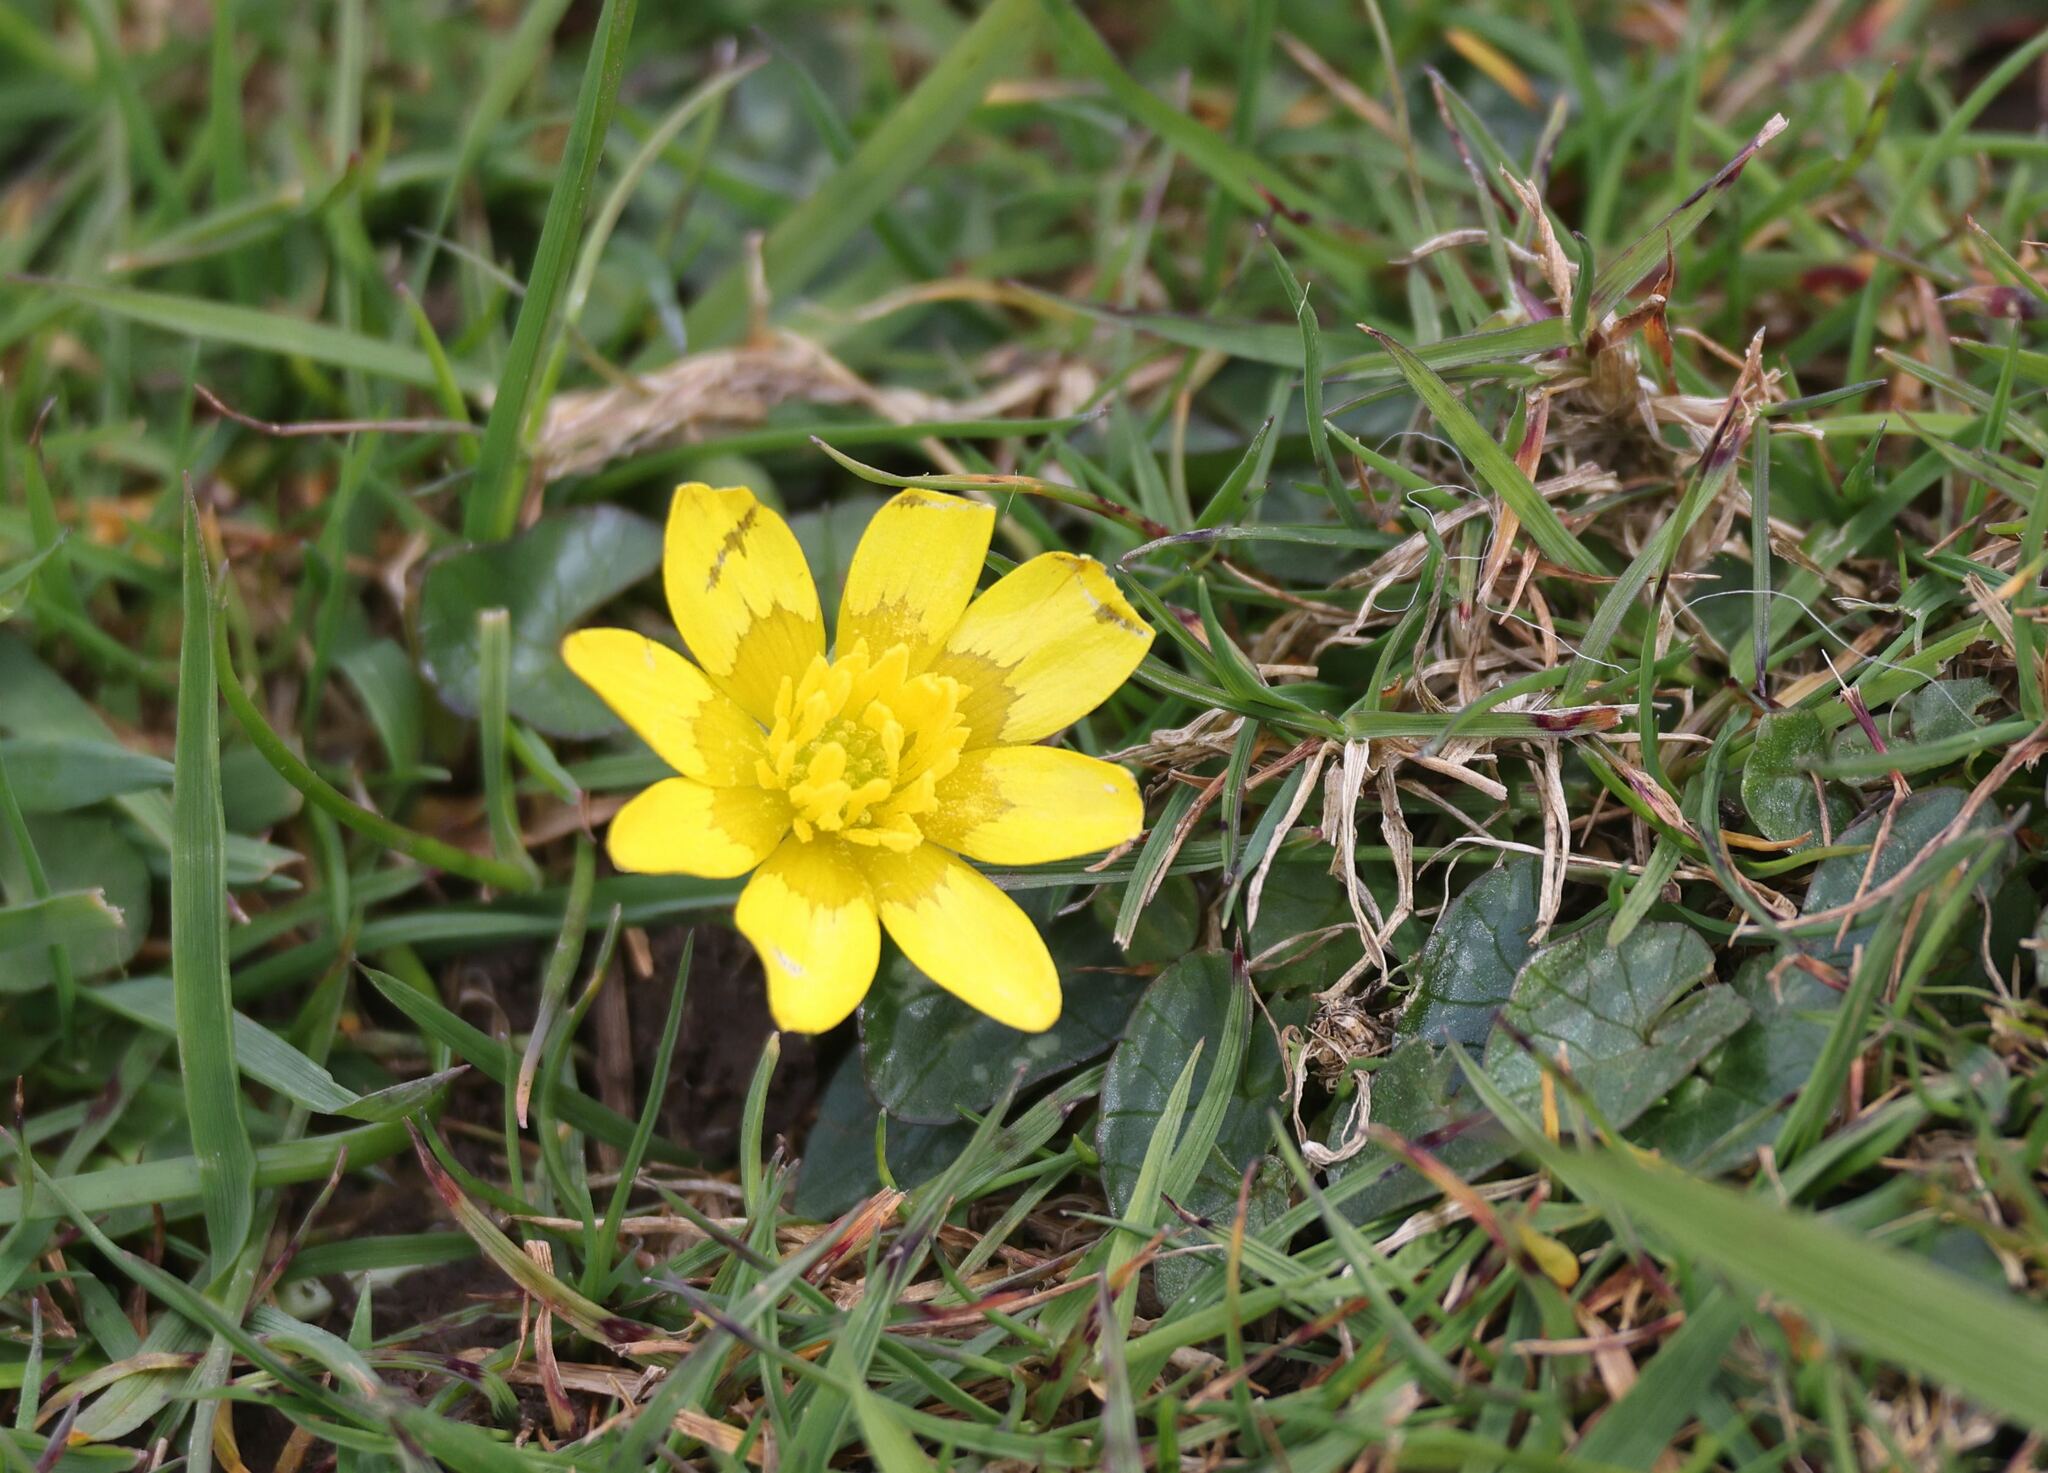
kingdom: Plantae
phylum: Tracheophyta
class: Magnoliopsida
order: Ranunculales
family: Ranunculaceae
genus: Ficaria
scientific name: Ficaria verna
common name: Lesser celandine
